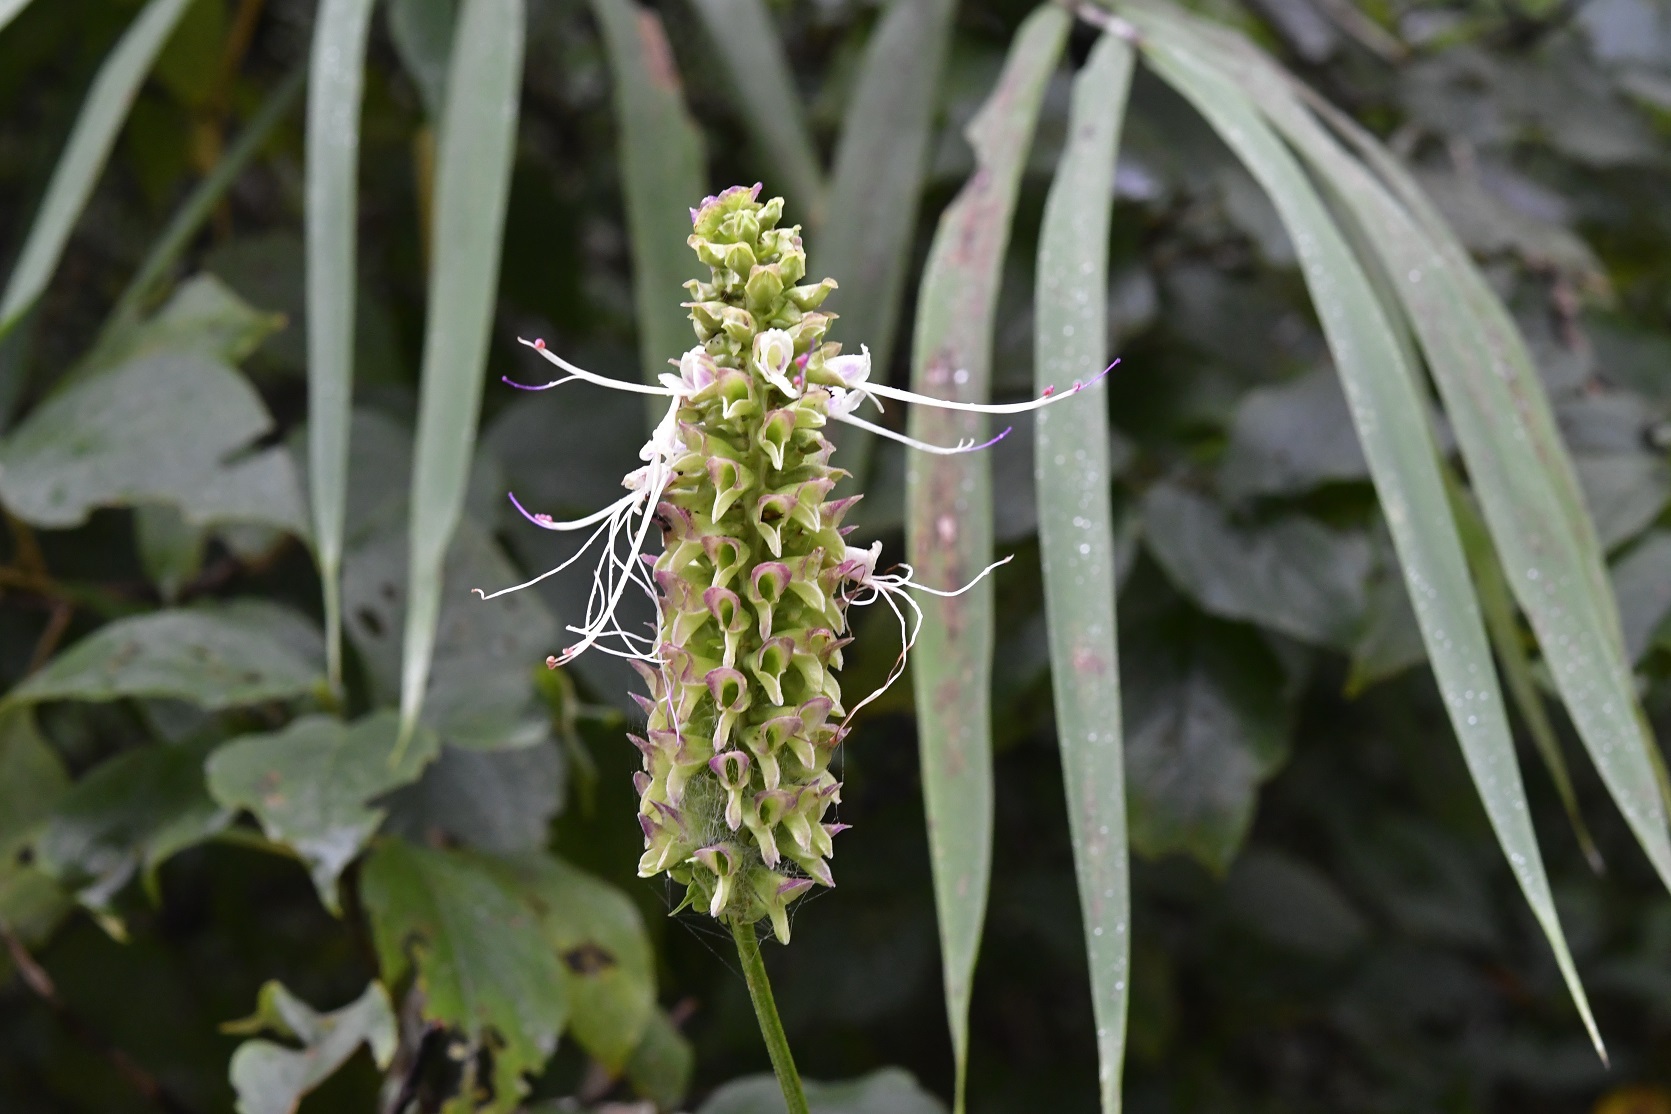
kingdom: Plantae
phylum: Tracheophyta
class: Magnoliopsida
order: Lamiales
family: Lamiaceae
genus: Catoferia
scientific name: Catoferia chiapensis
